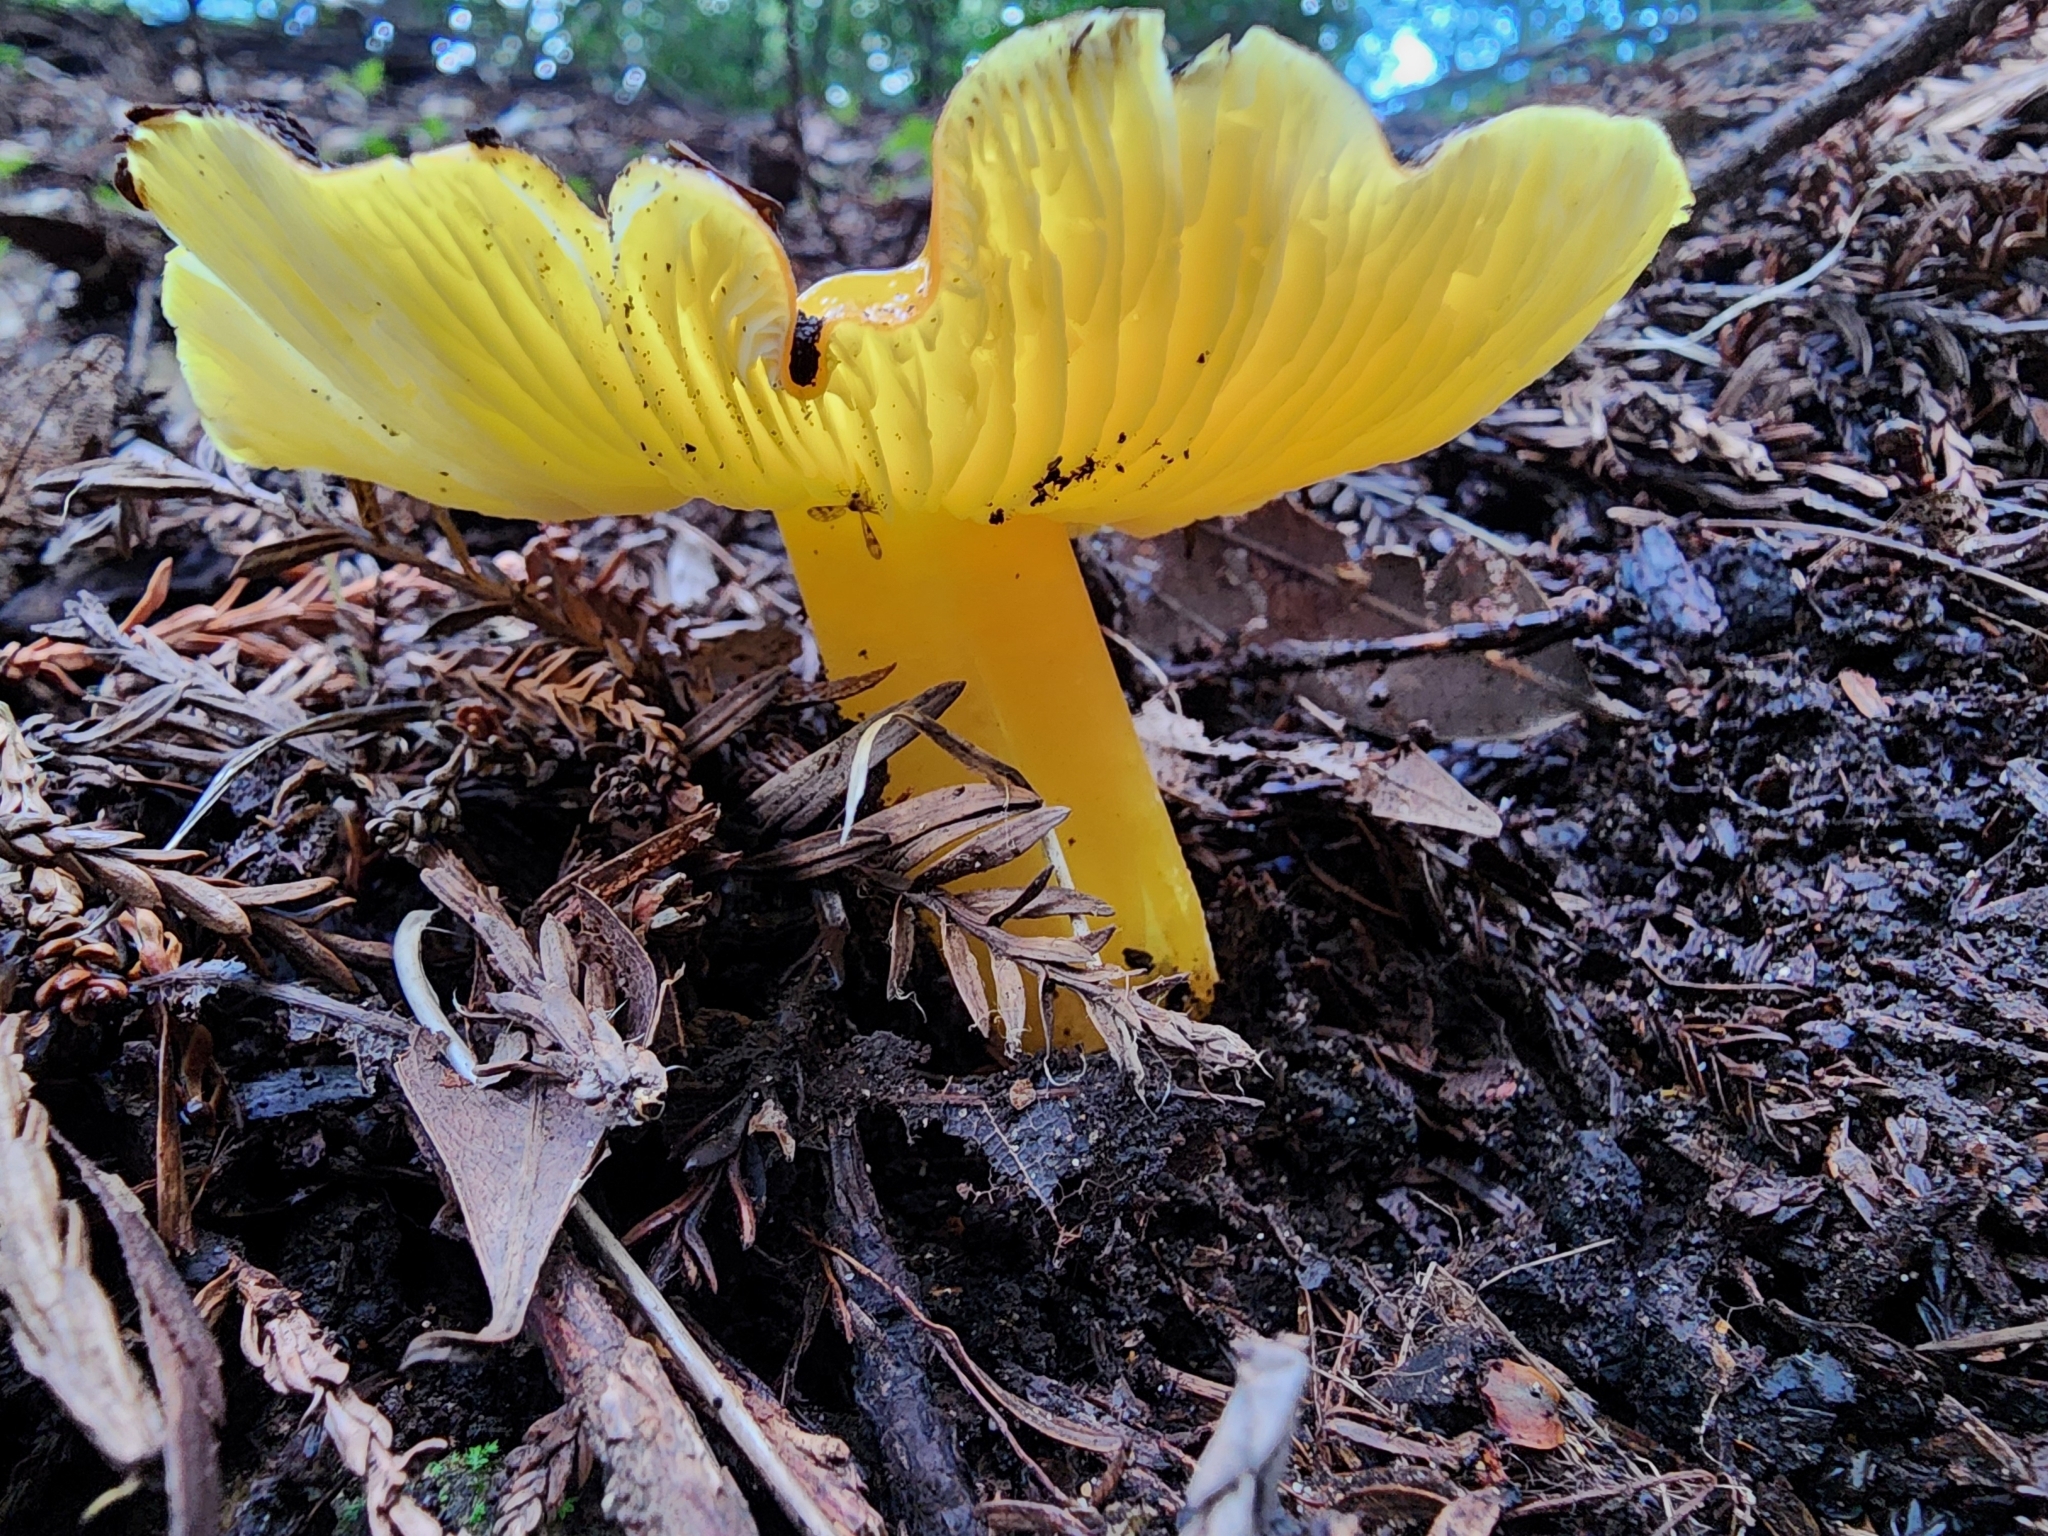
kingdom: Fungi
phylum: Basidiomycota
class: Agaricomycetes
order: Agaricales
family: Hygrophoraceae
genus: Hygrocybe
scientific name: Hygrocybe flavescens
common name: Golden waxy cap
